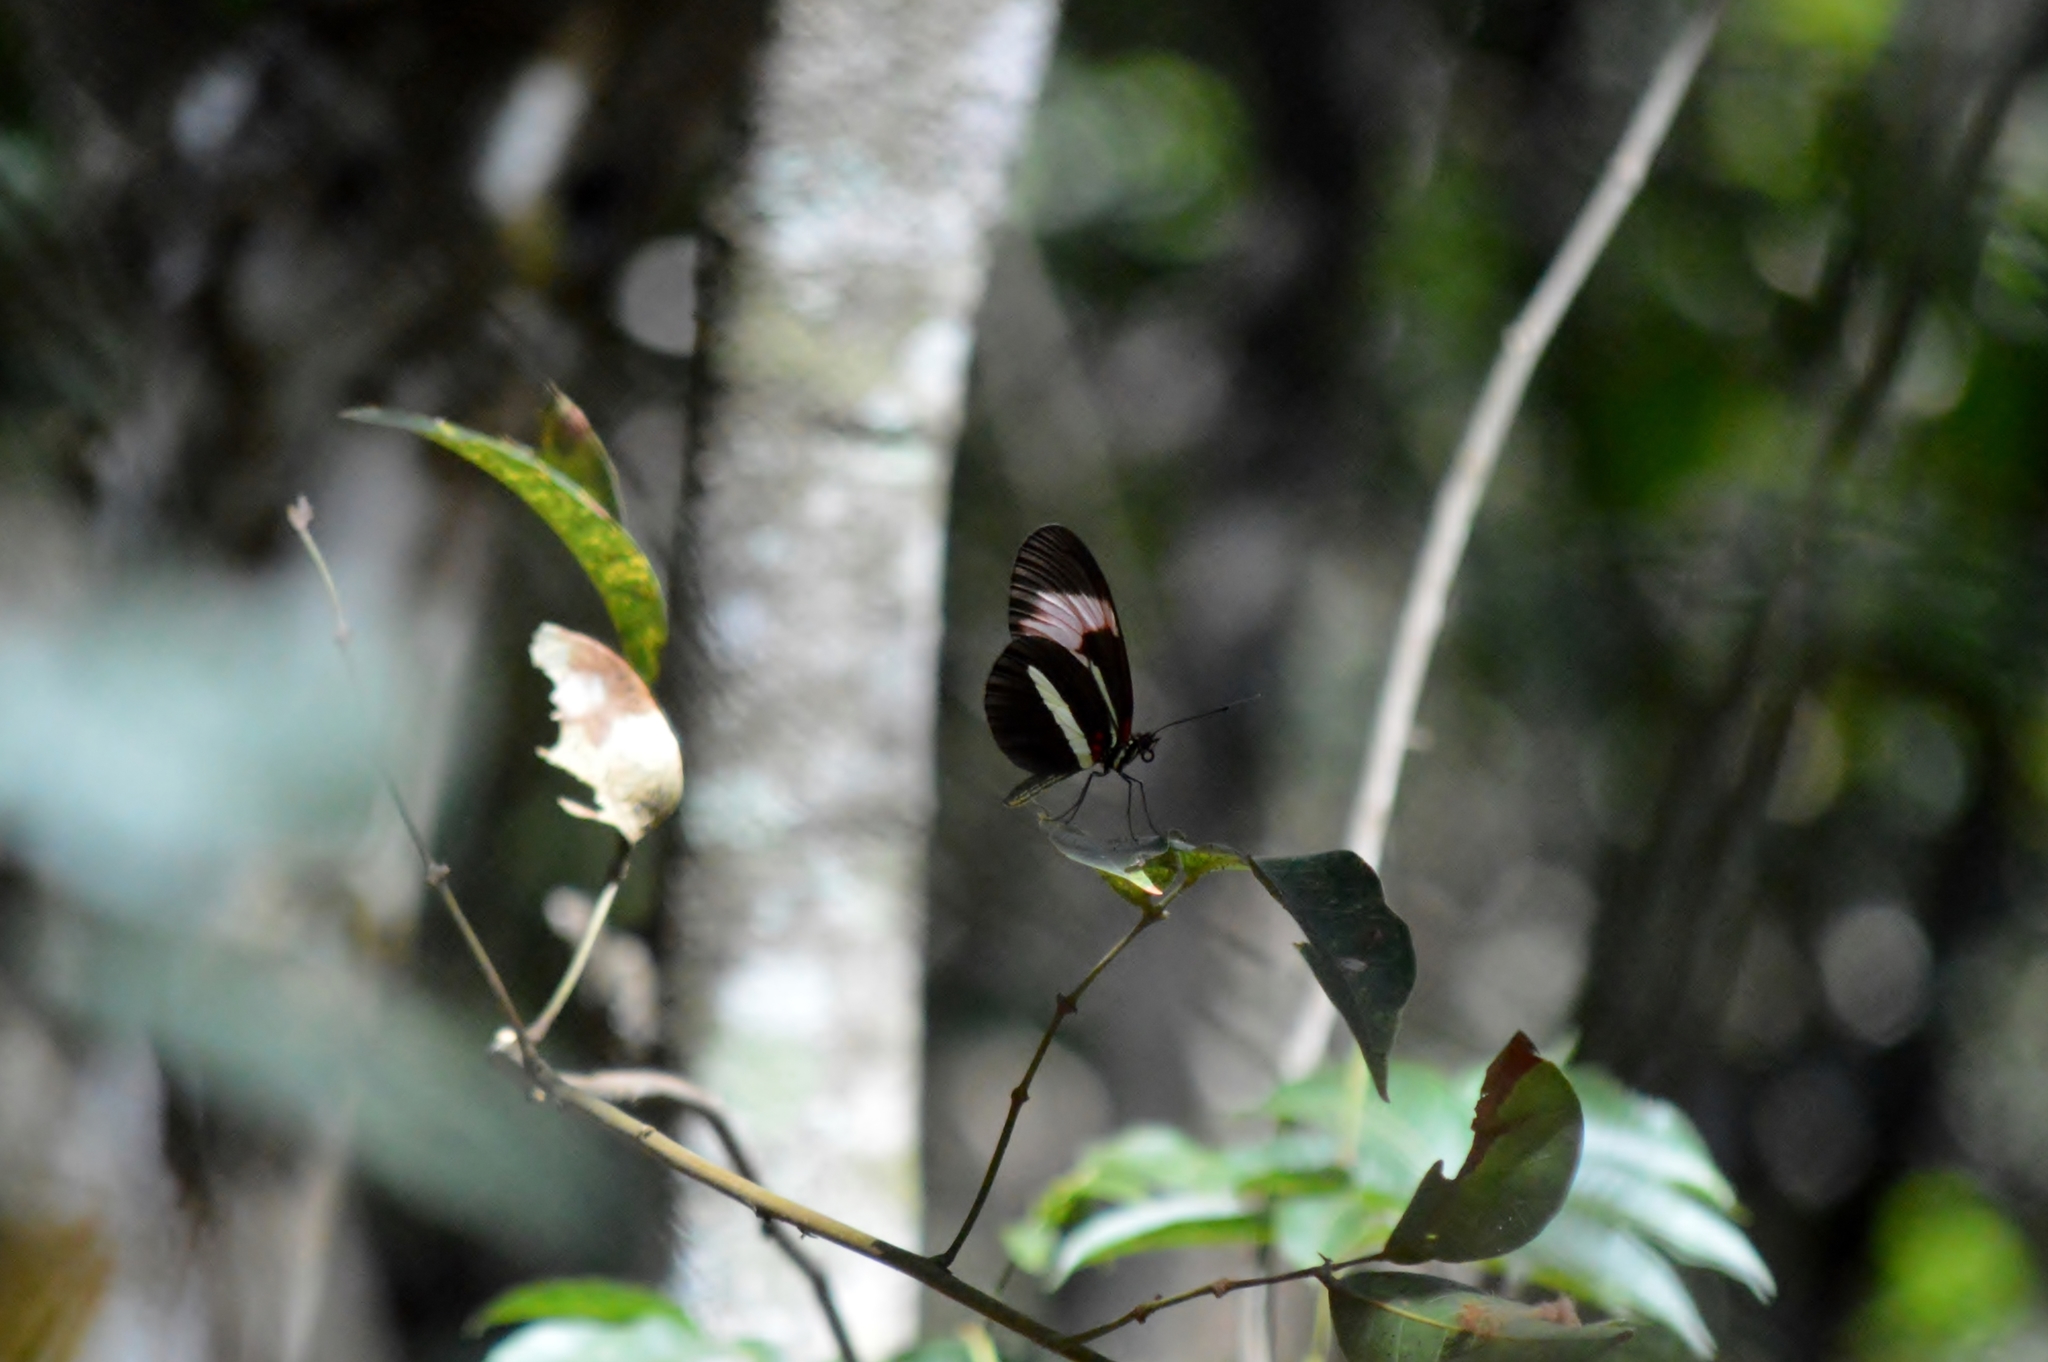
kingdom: Animalia
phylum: Arthropoda
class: Insecta
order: Lepidoptera
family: Nymphalidae
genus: Heliconius
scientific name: Heliconius melpomene
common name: Postman
